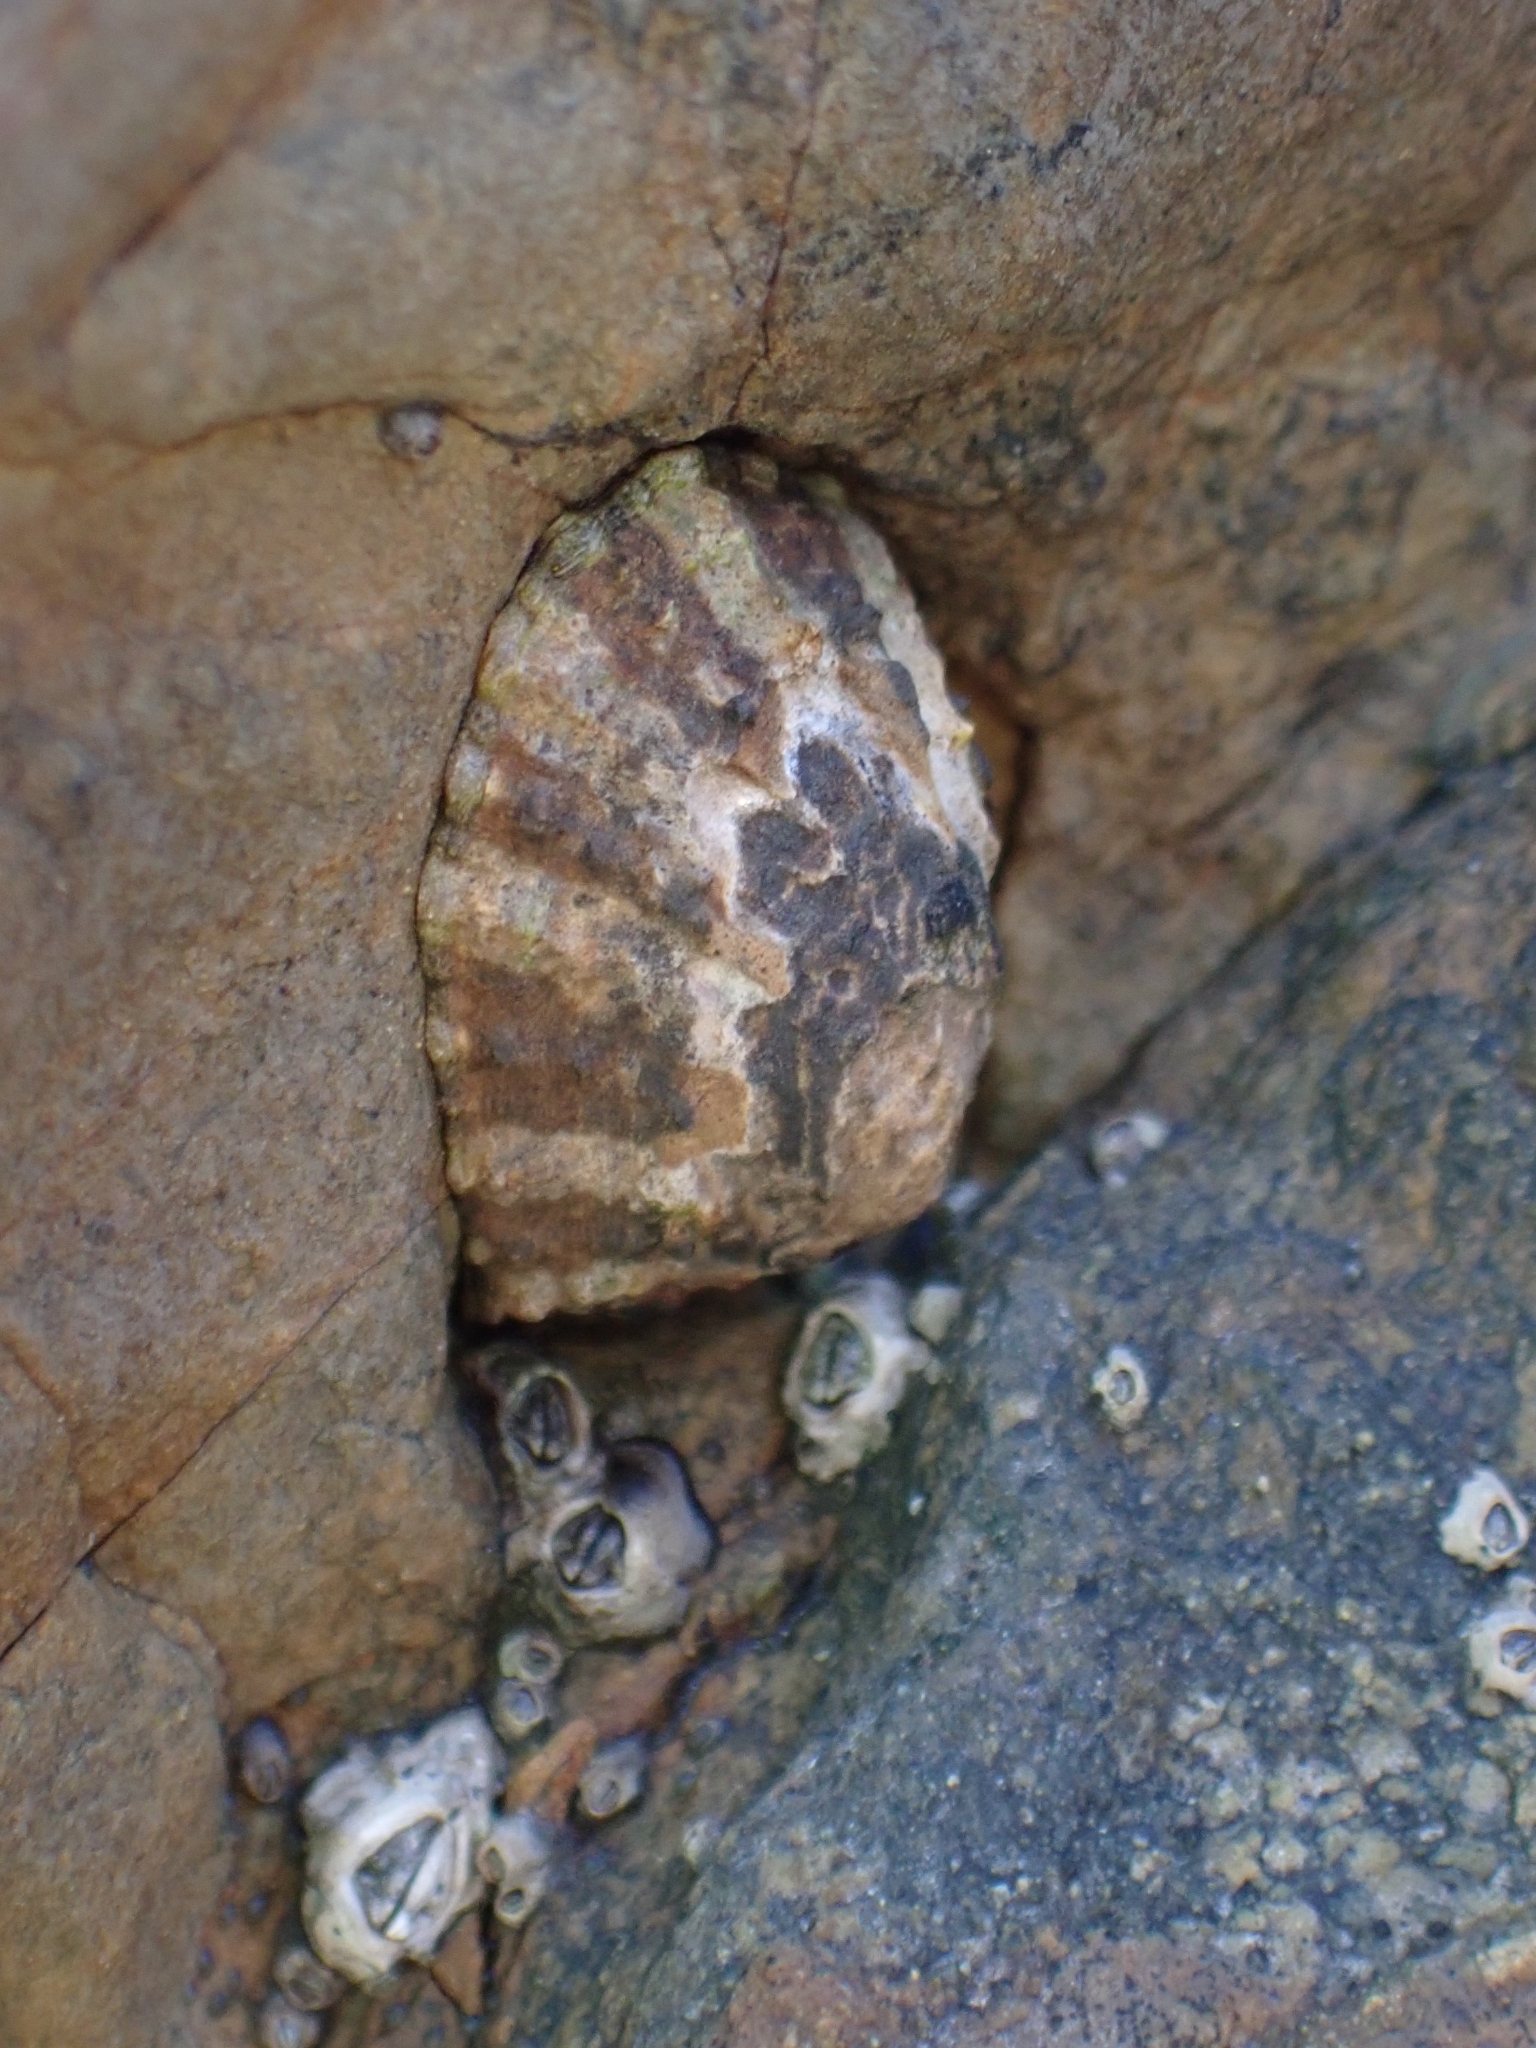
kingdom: Animalia
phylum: Mollusca
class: Gastropoda
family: Nacellidae
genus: Cellana
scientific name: Cellana ornata
